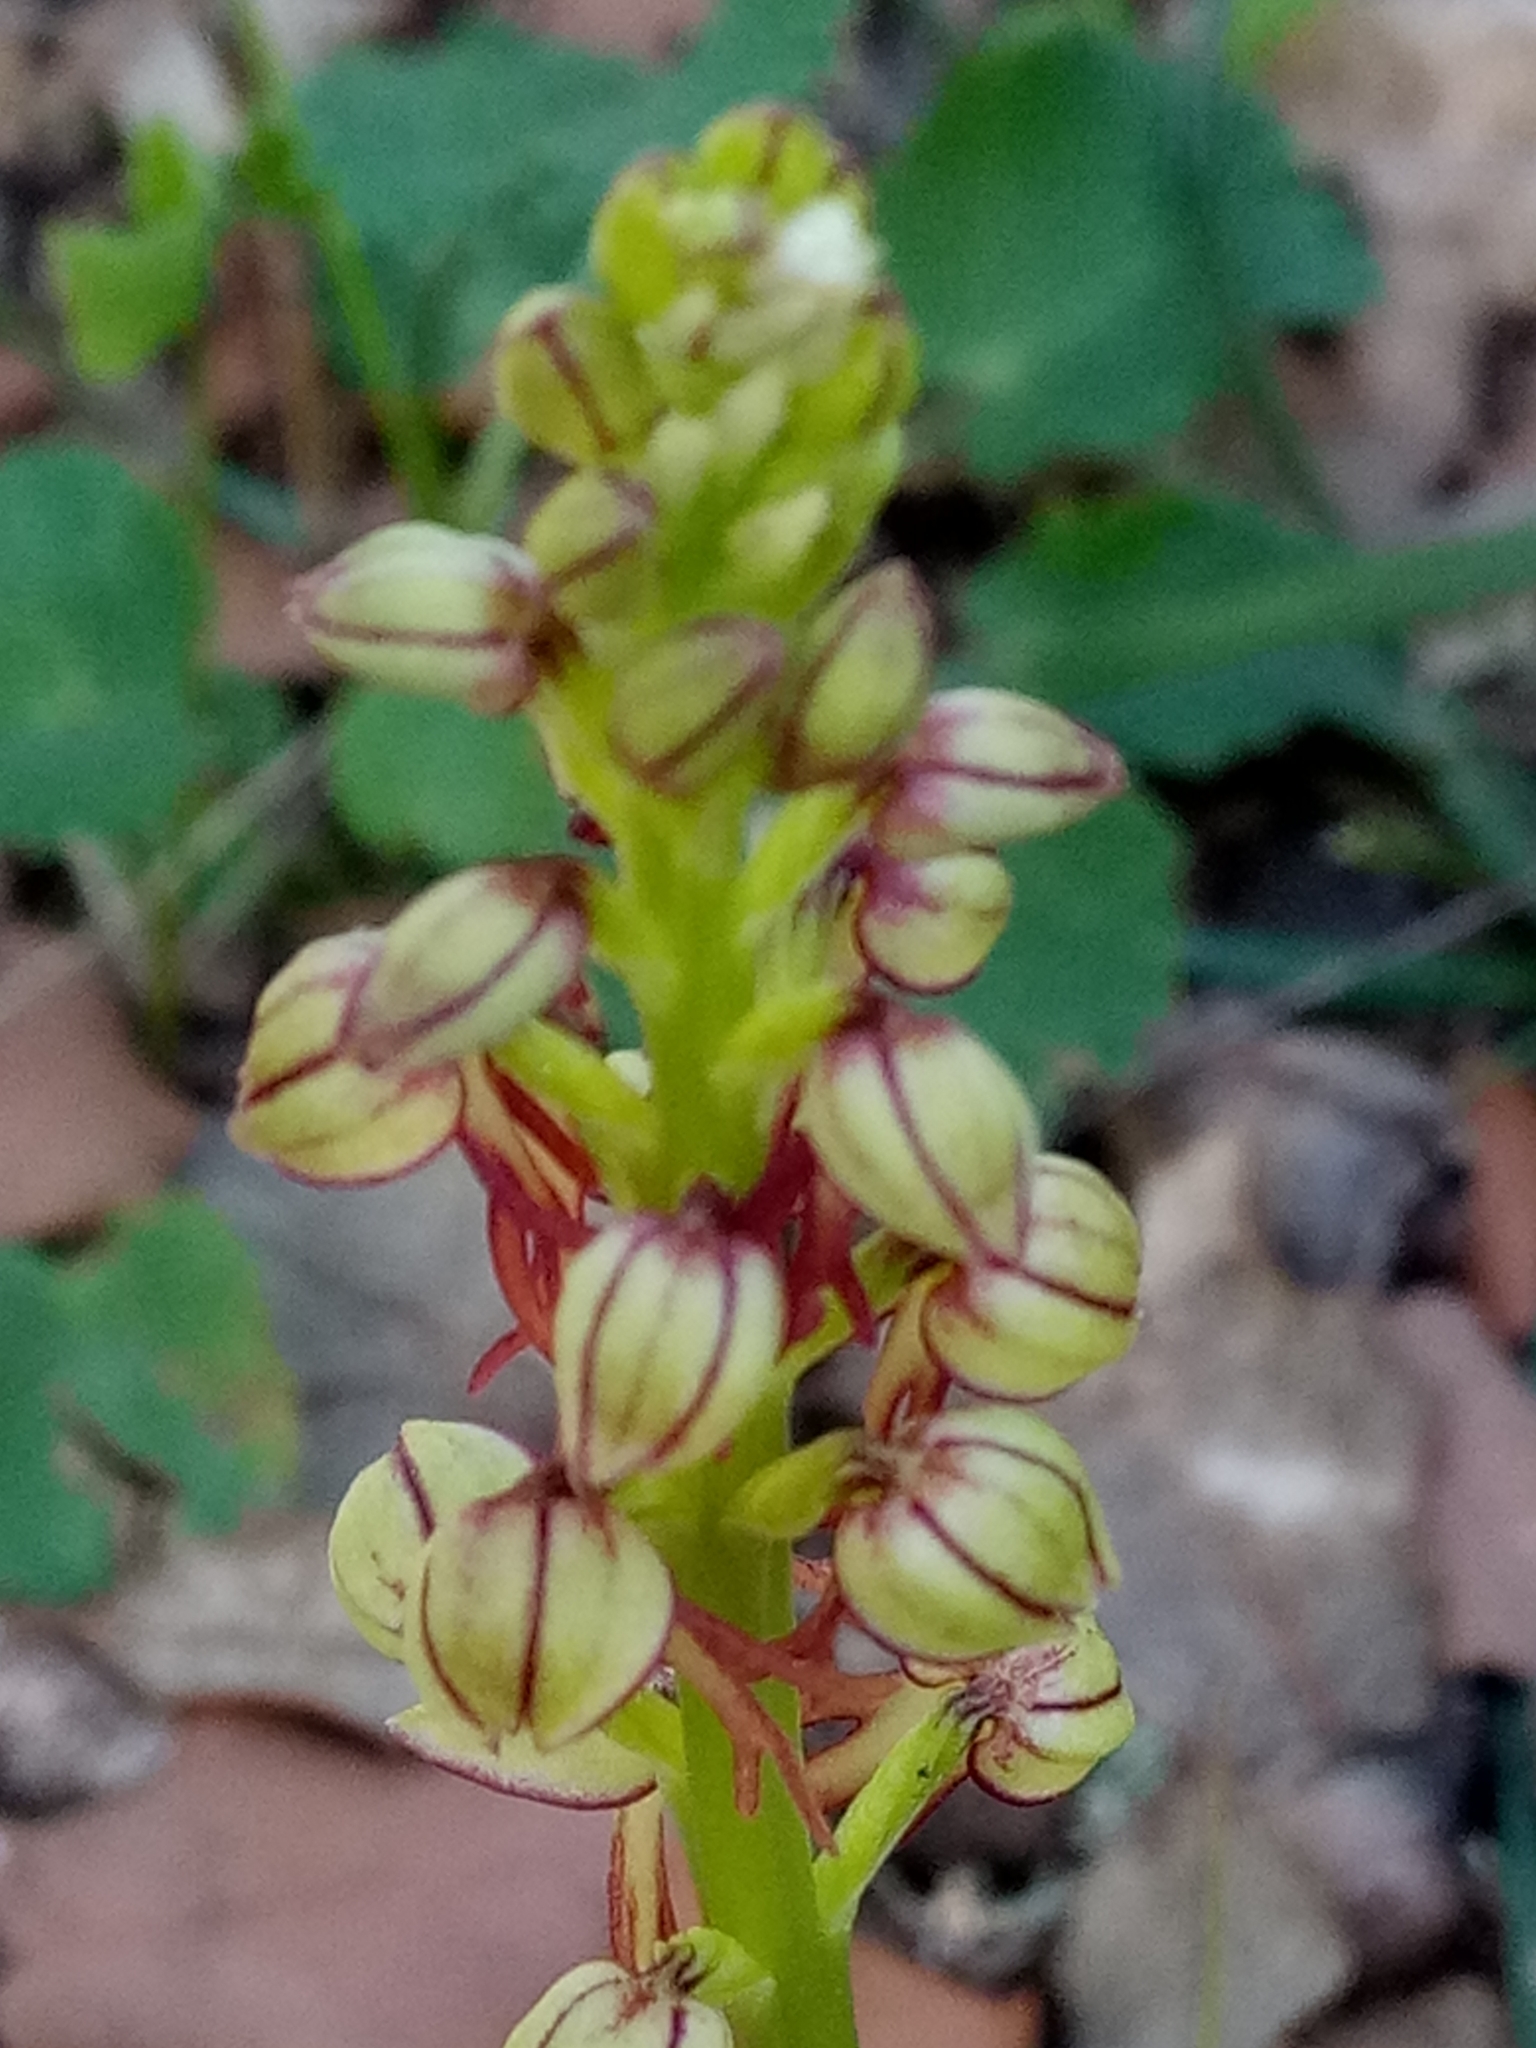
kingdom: Plantae
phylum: Tracheophyta
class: Liliopsida
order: Asparagales
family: Orchidaceae
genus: Orchis
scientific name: Orchis anthropophora
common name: Man orchid
